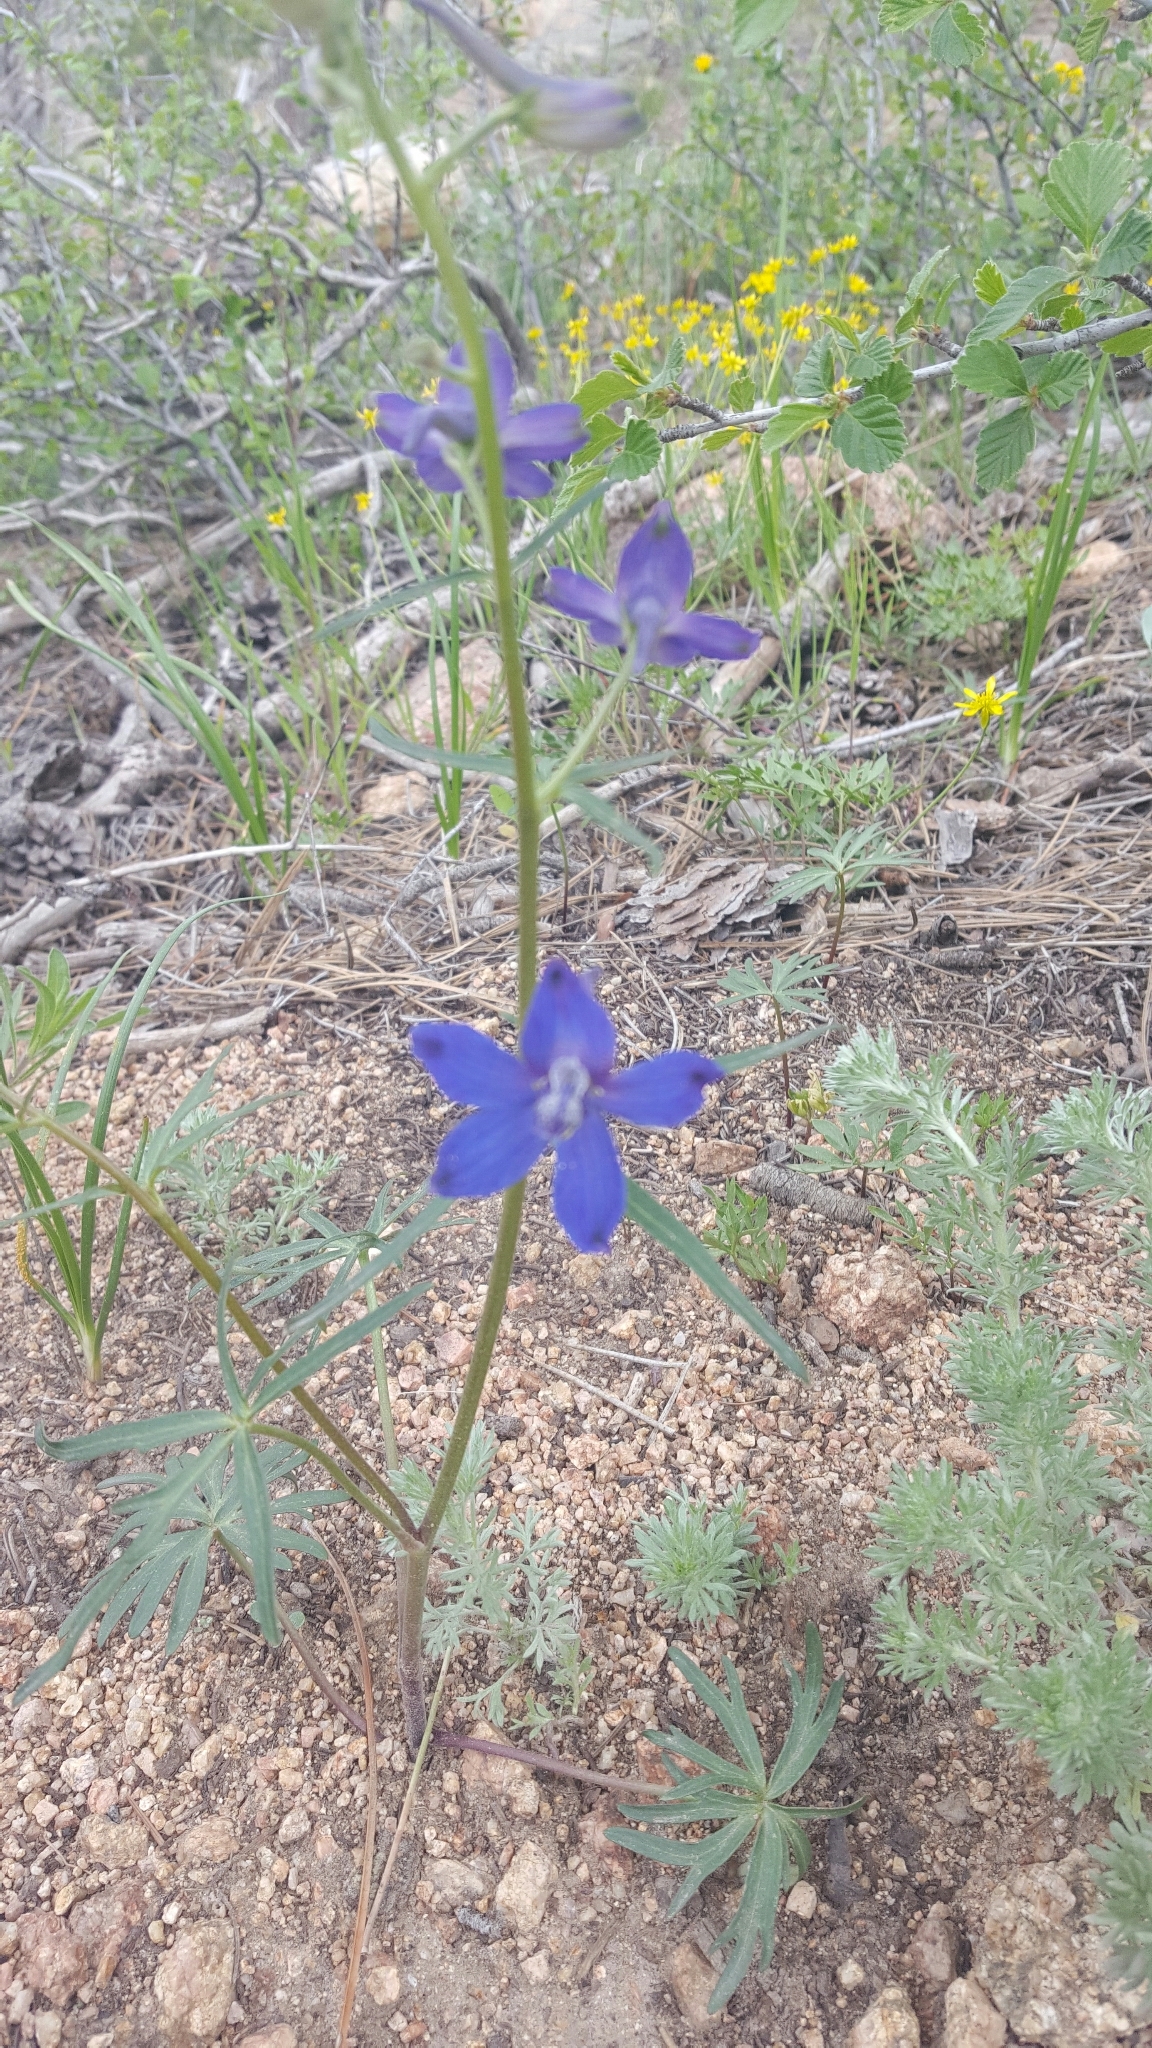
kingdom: Plantae
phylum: Tracheophyta
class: Magnoliopsida
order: Ranunculales
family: Ranunculaceae
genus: Delphinium
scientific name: Delphinium nuttallianum
